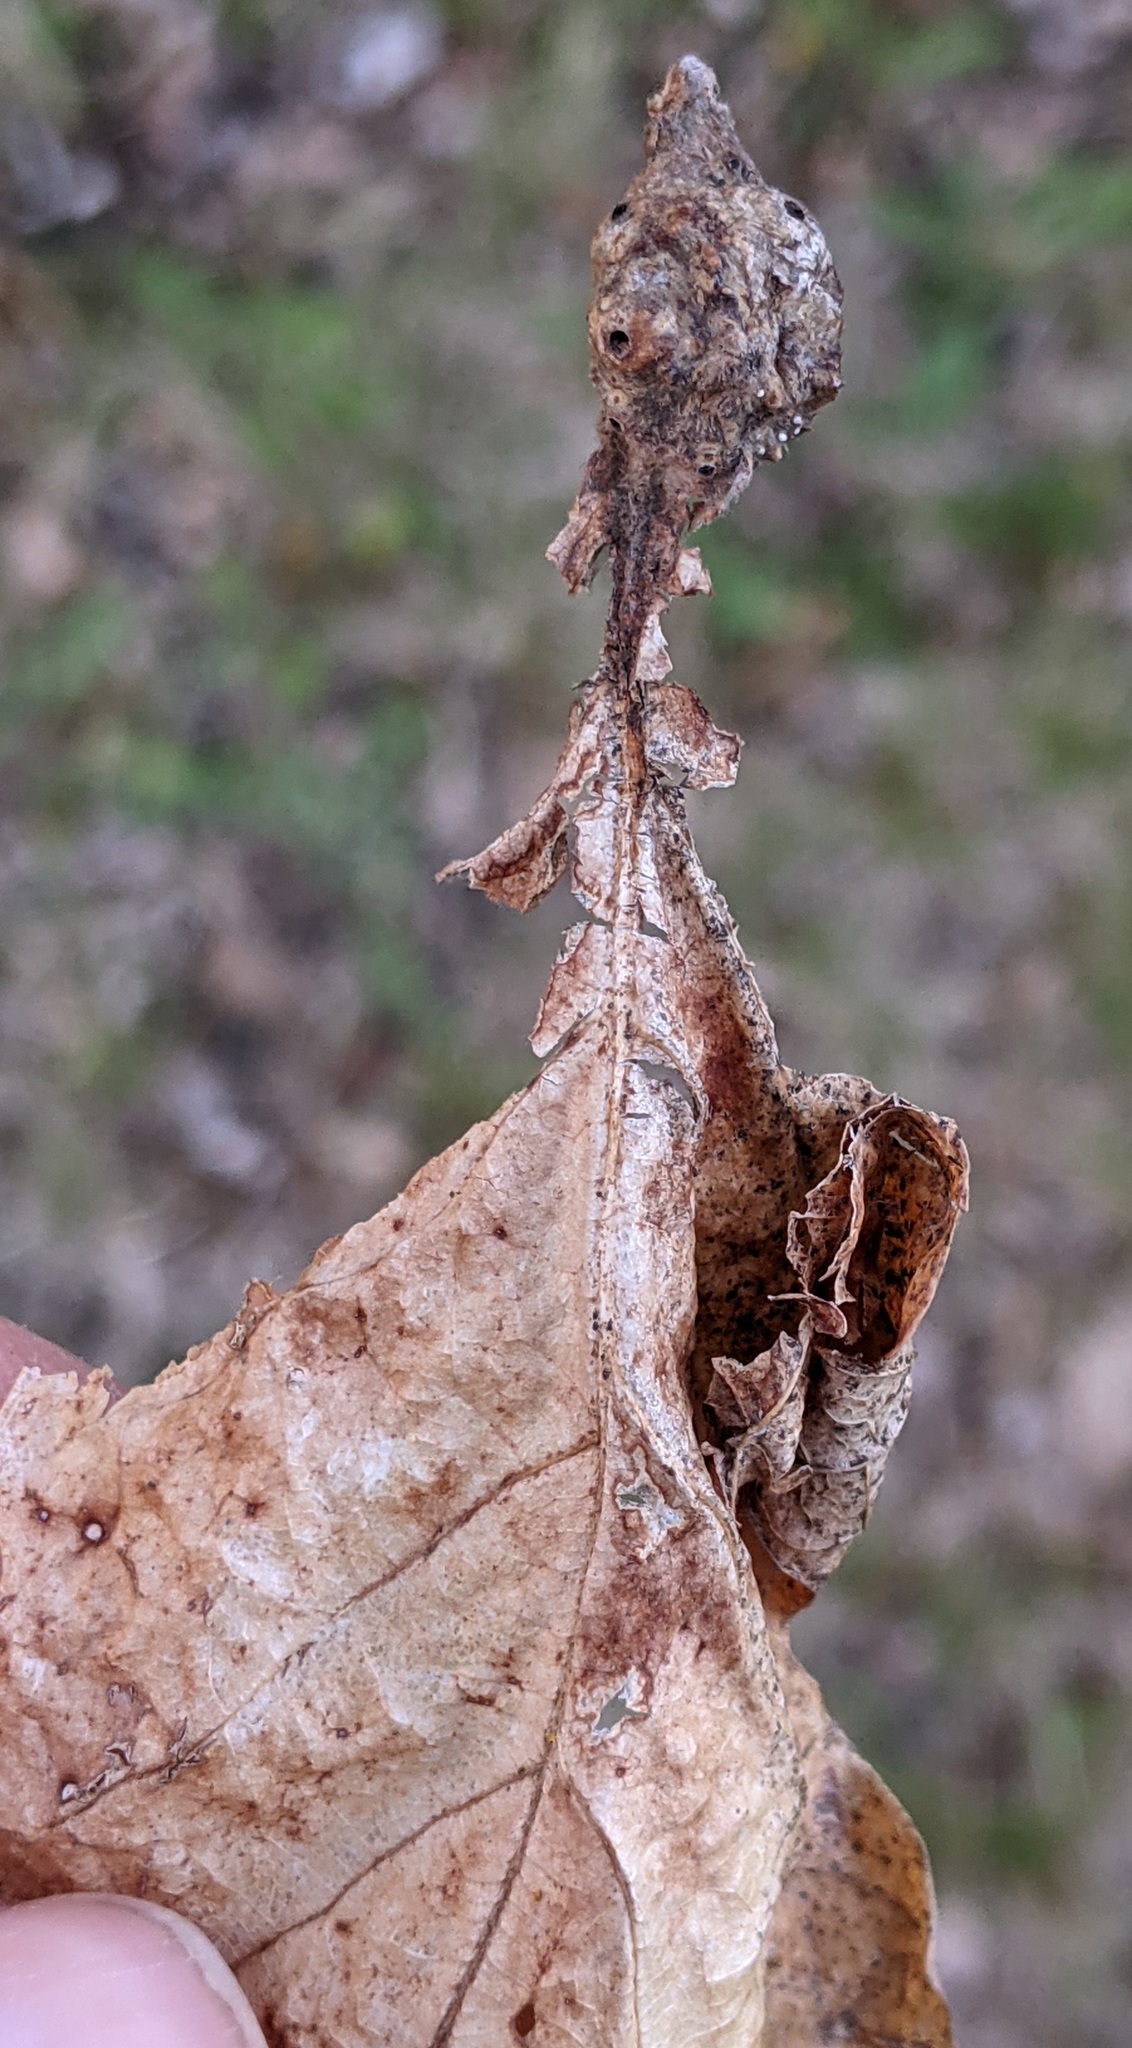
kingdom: Animalia
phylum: Arthropoda
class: Insecta
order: Hymenoptera
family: Cynipidae
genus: Andricus
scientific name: Andricus
